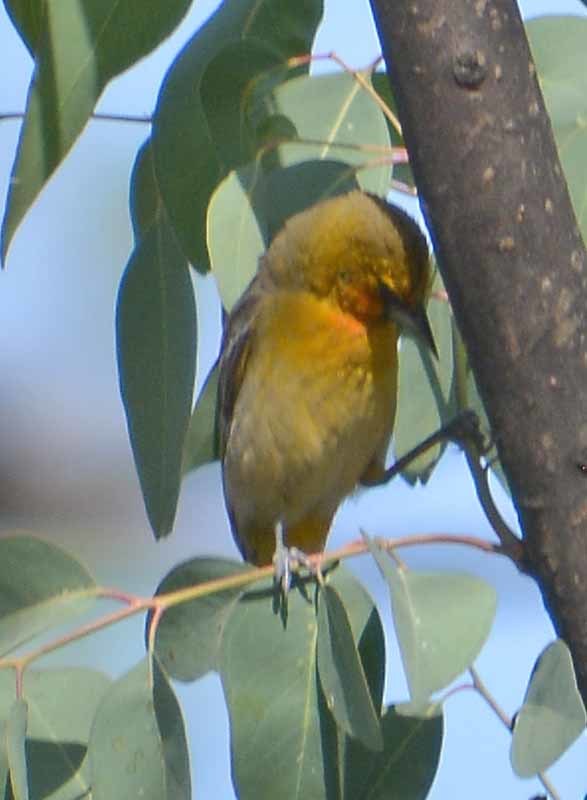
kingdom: Animalia
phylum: Chordata
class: Aves
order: Passeriformes
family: Icteridae
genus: Icterus
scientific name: Icterus pustulatus
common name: Streak-backed oriole
